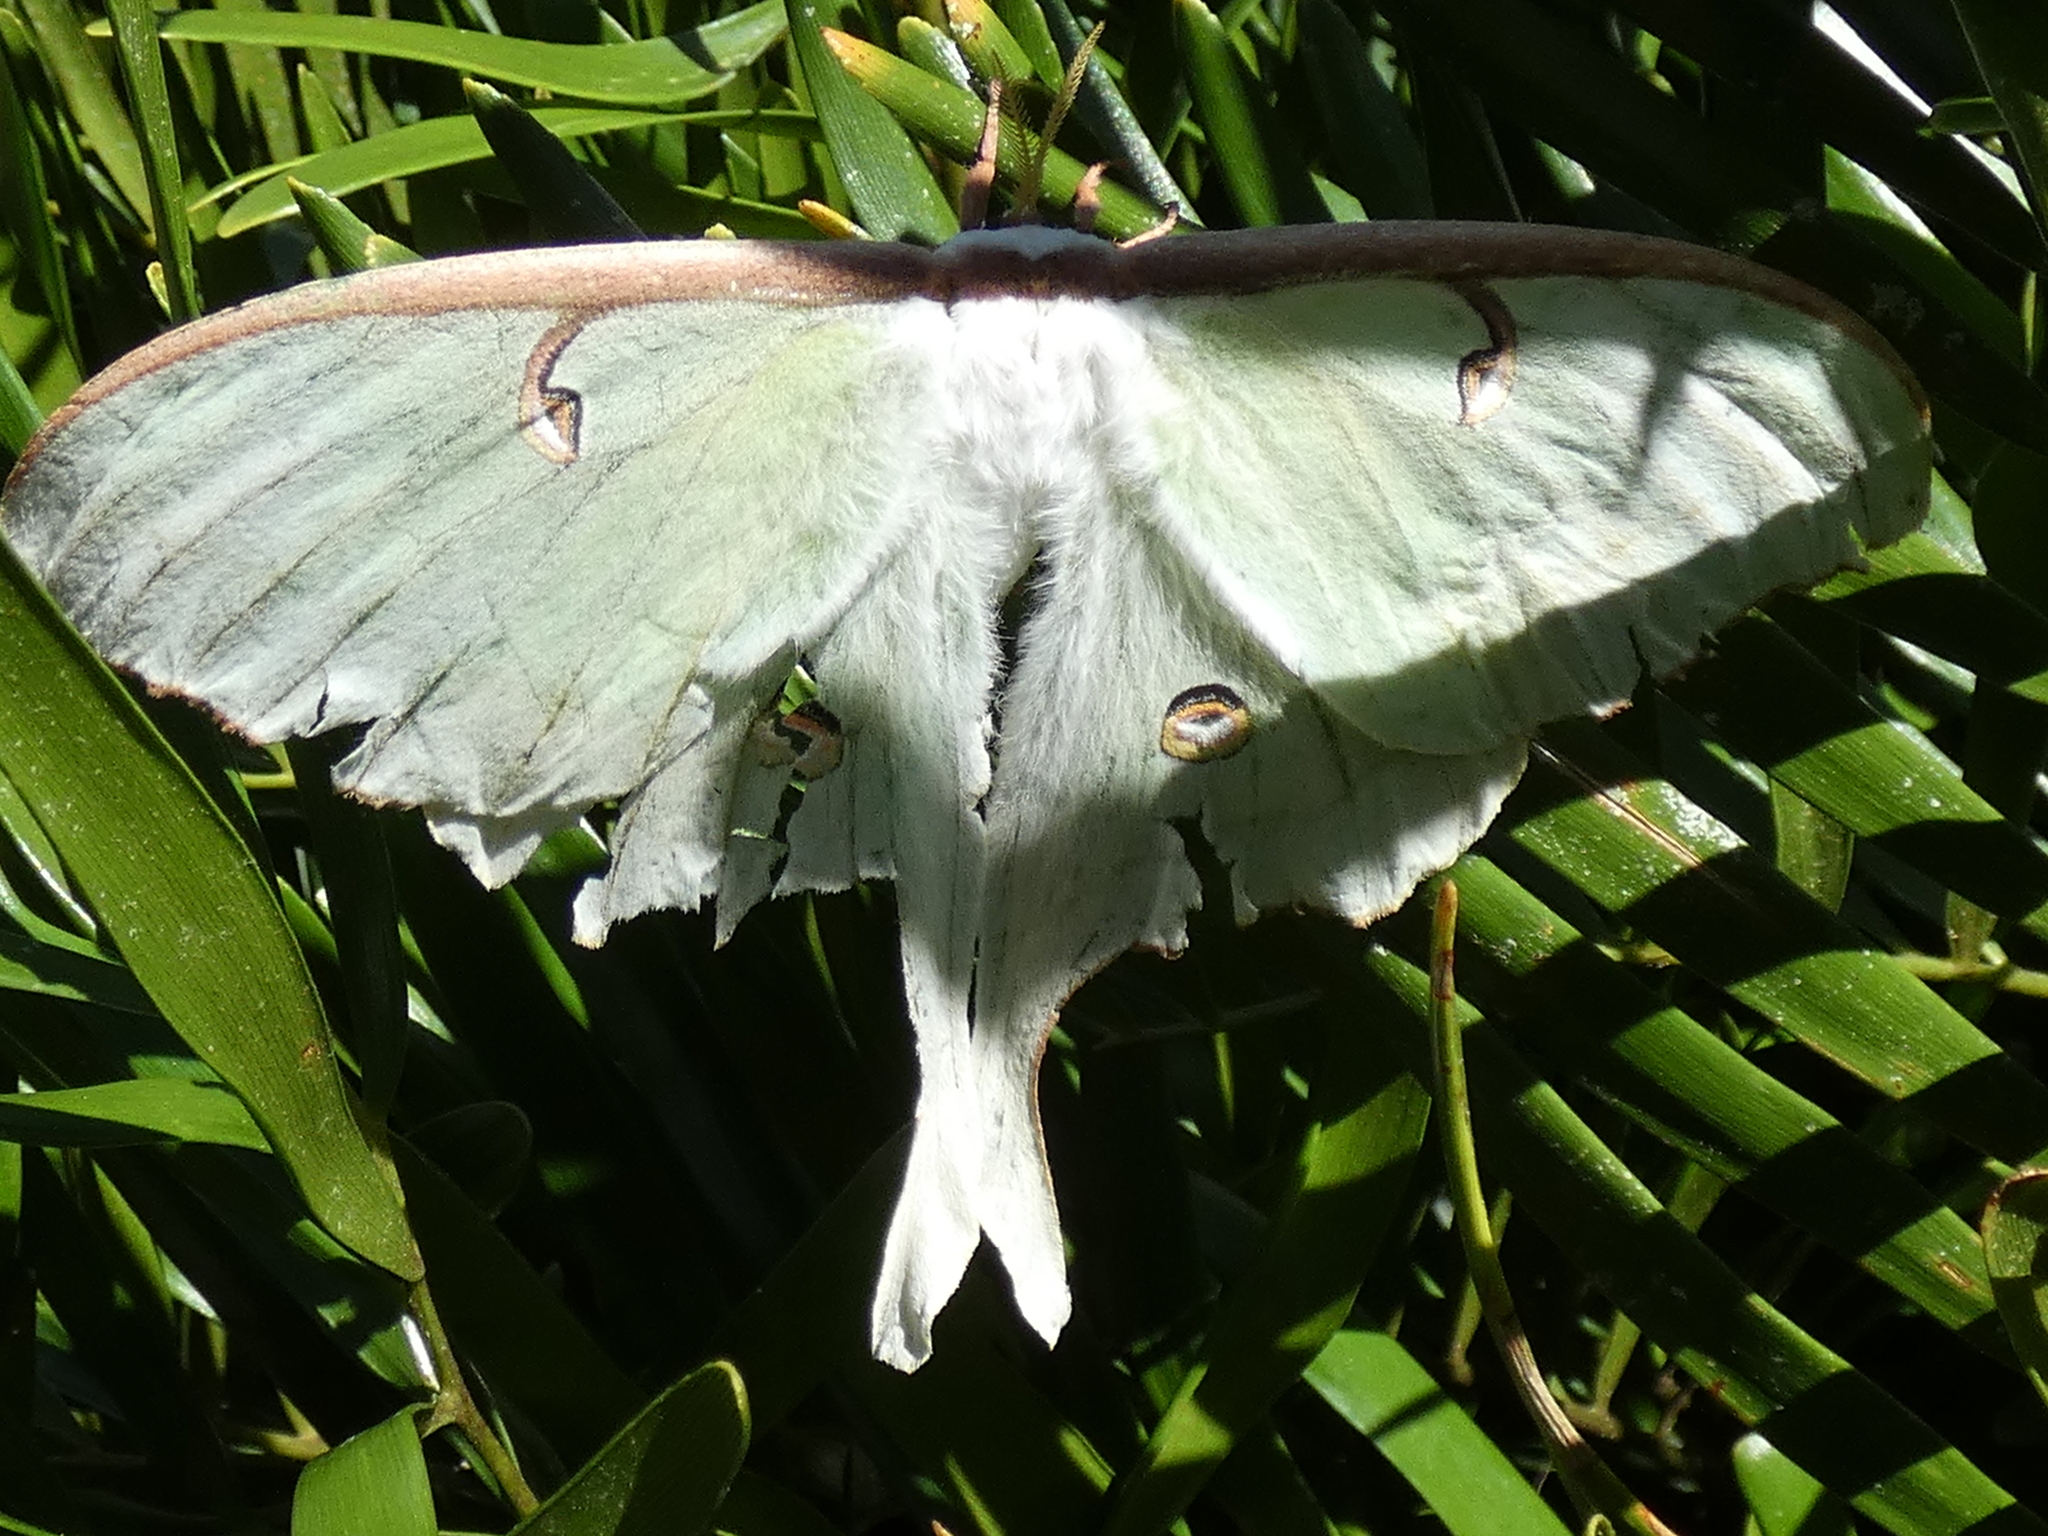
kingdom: Animalia
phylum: Arthropoda
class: Insecta
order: Lepidoptera
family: Saturniidae
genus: Actias
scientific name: Actias luna
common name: Luna moth
